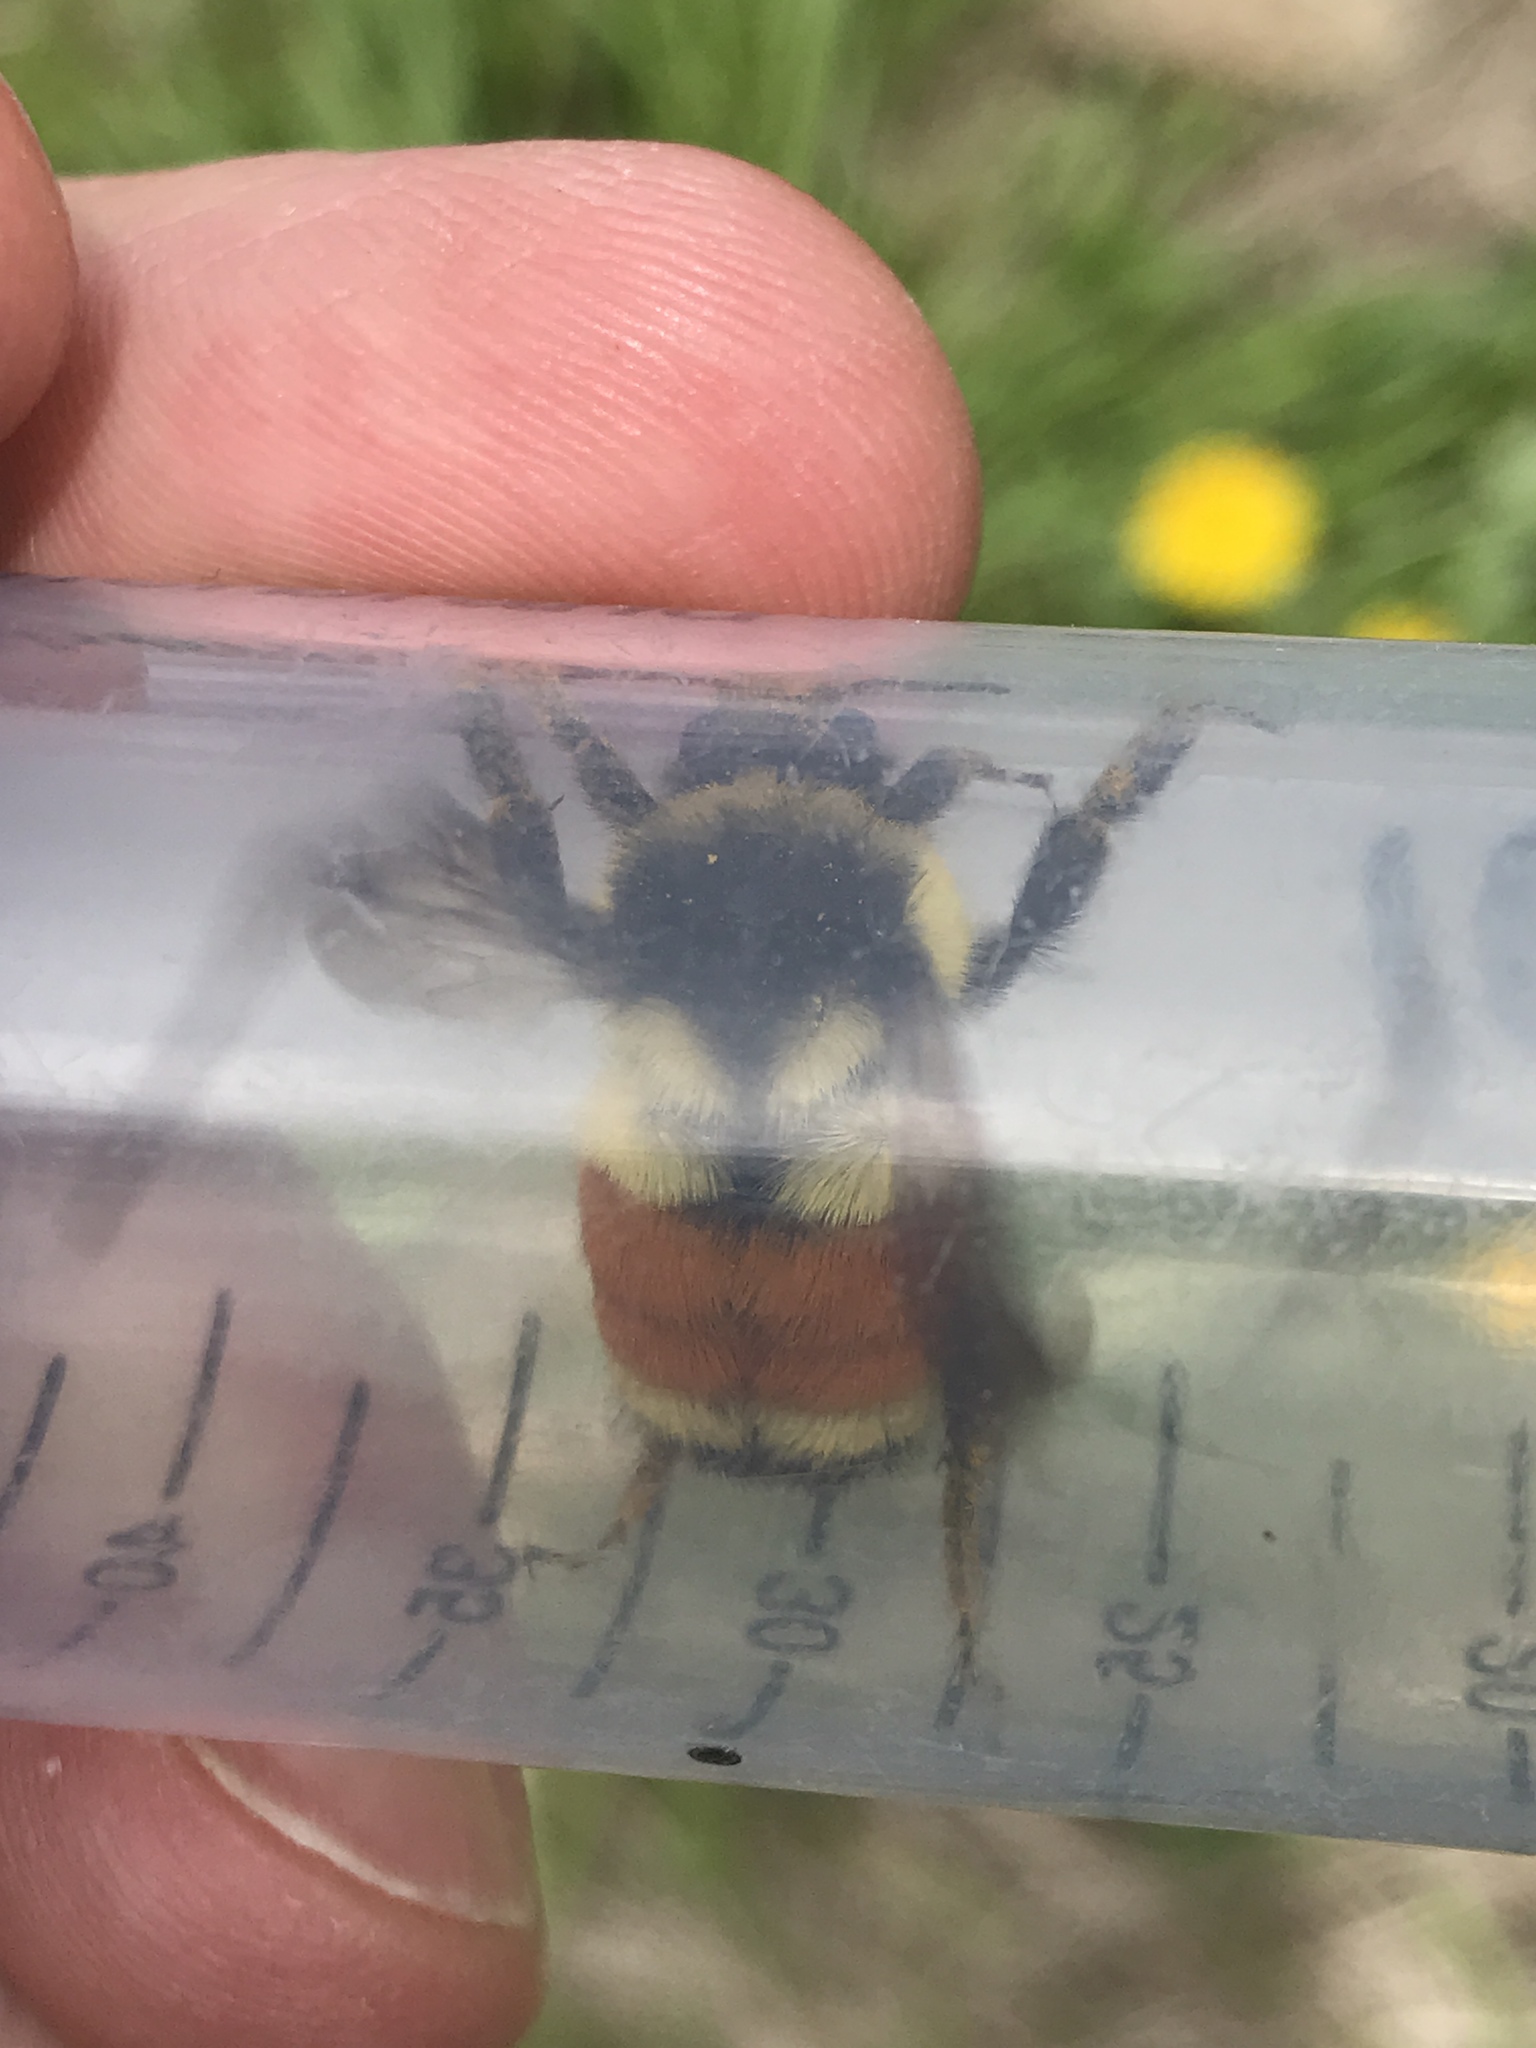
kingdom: Animalia
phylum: Arthropoda
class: Insecta
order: Hymenoptera
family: Apidae
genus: Bombus
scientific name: Bombus ternarius
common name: Tri-colored bumble bee
